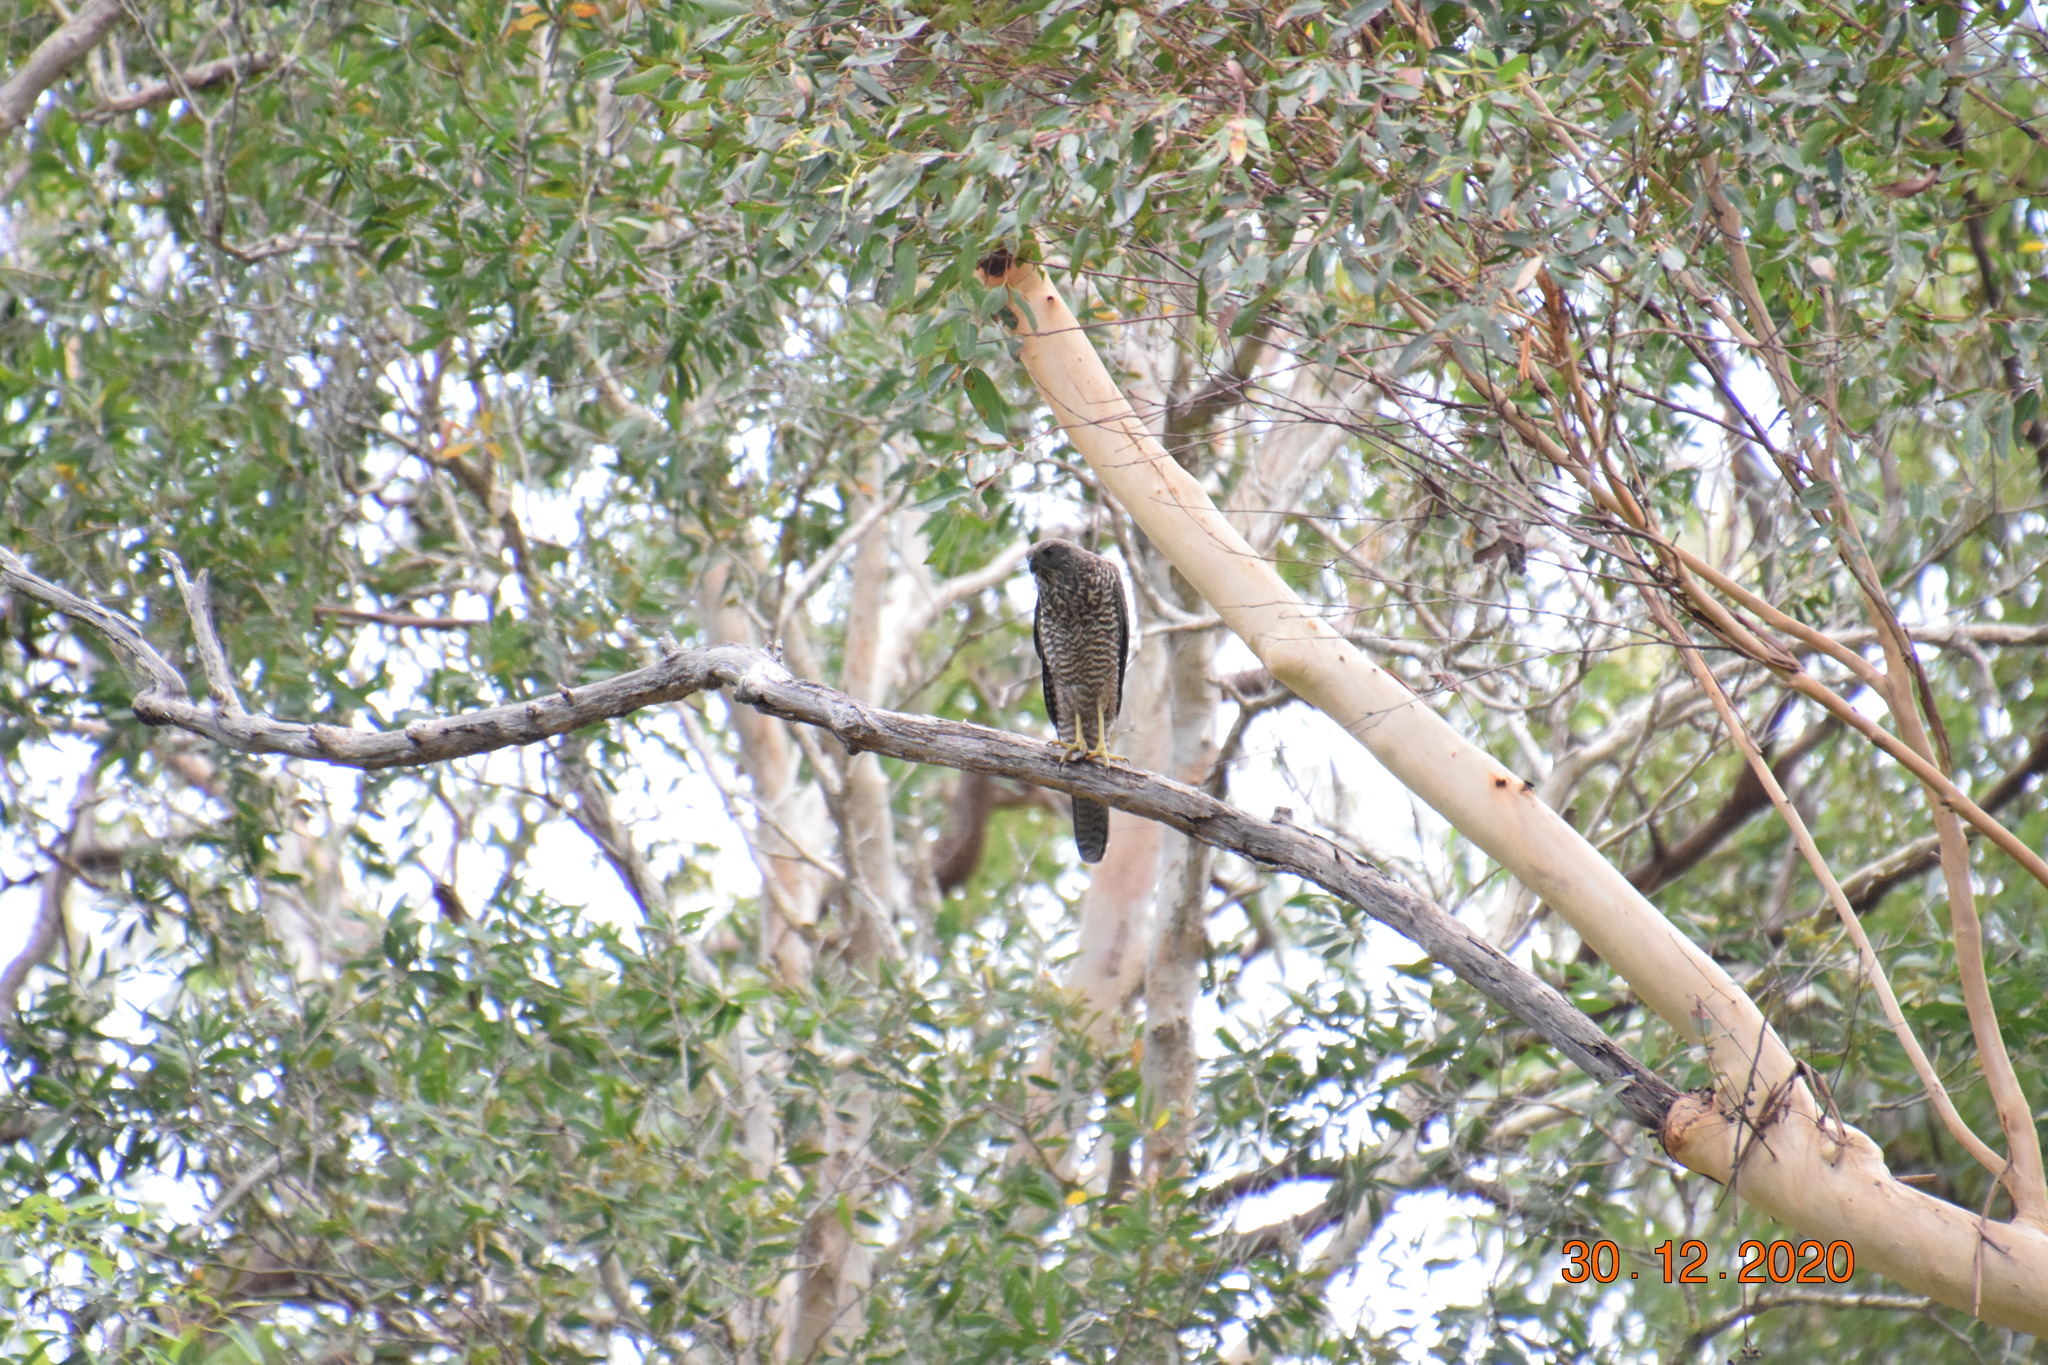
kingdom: Animalia
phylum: Chordata
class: Aves
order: Accipitriformes
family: Accipitridae
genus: Accipiter
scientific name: Accipiter fasciatus
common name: Brown goshawk
